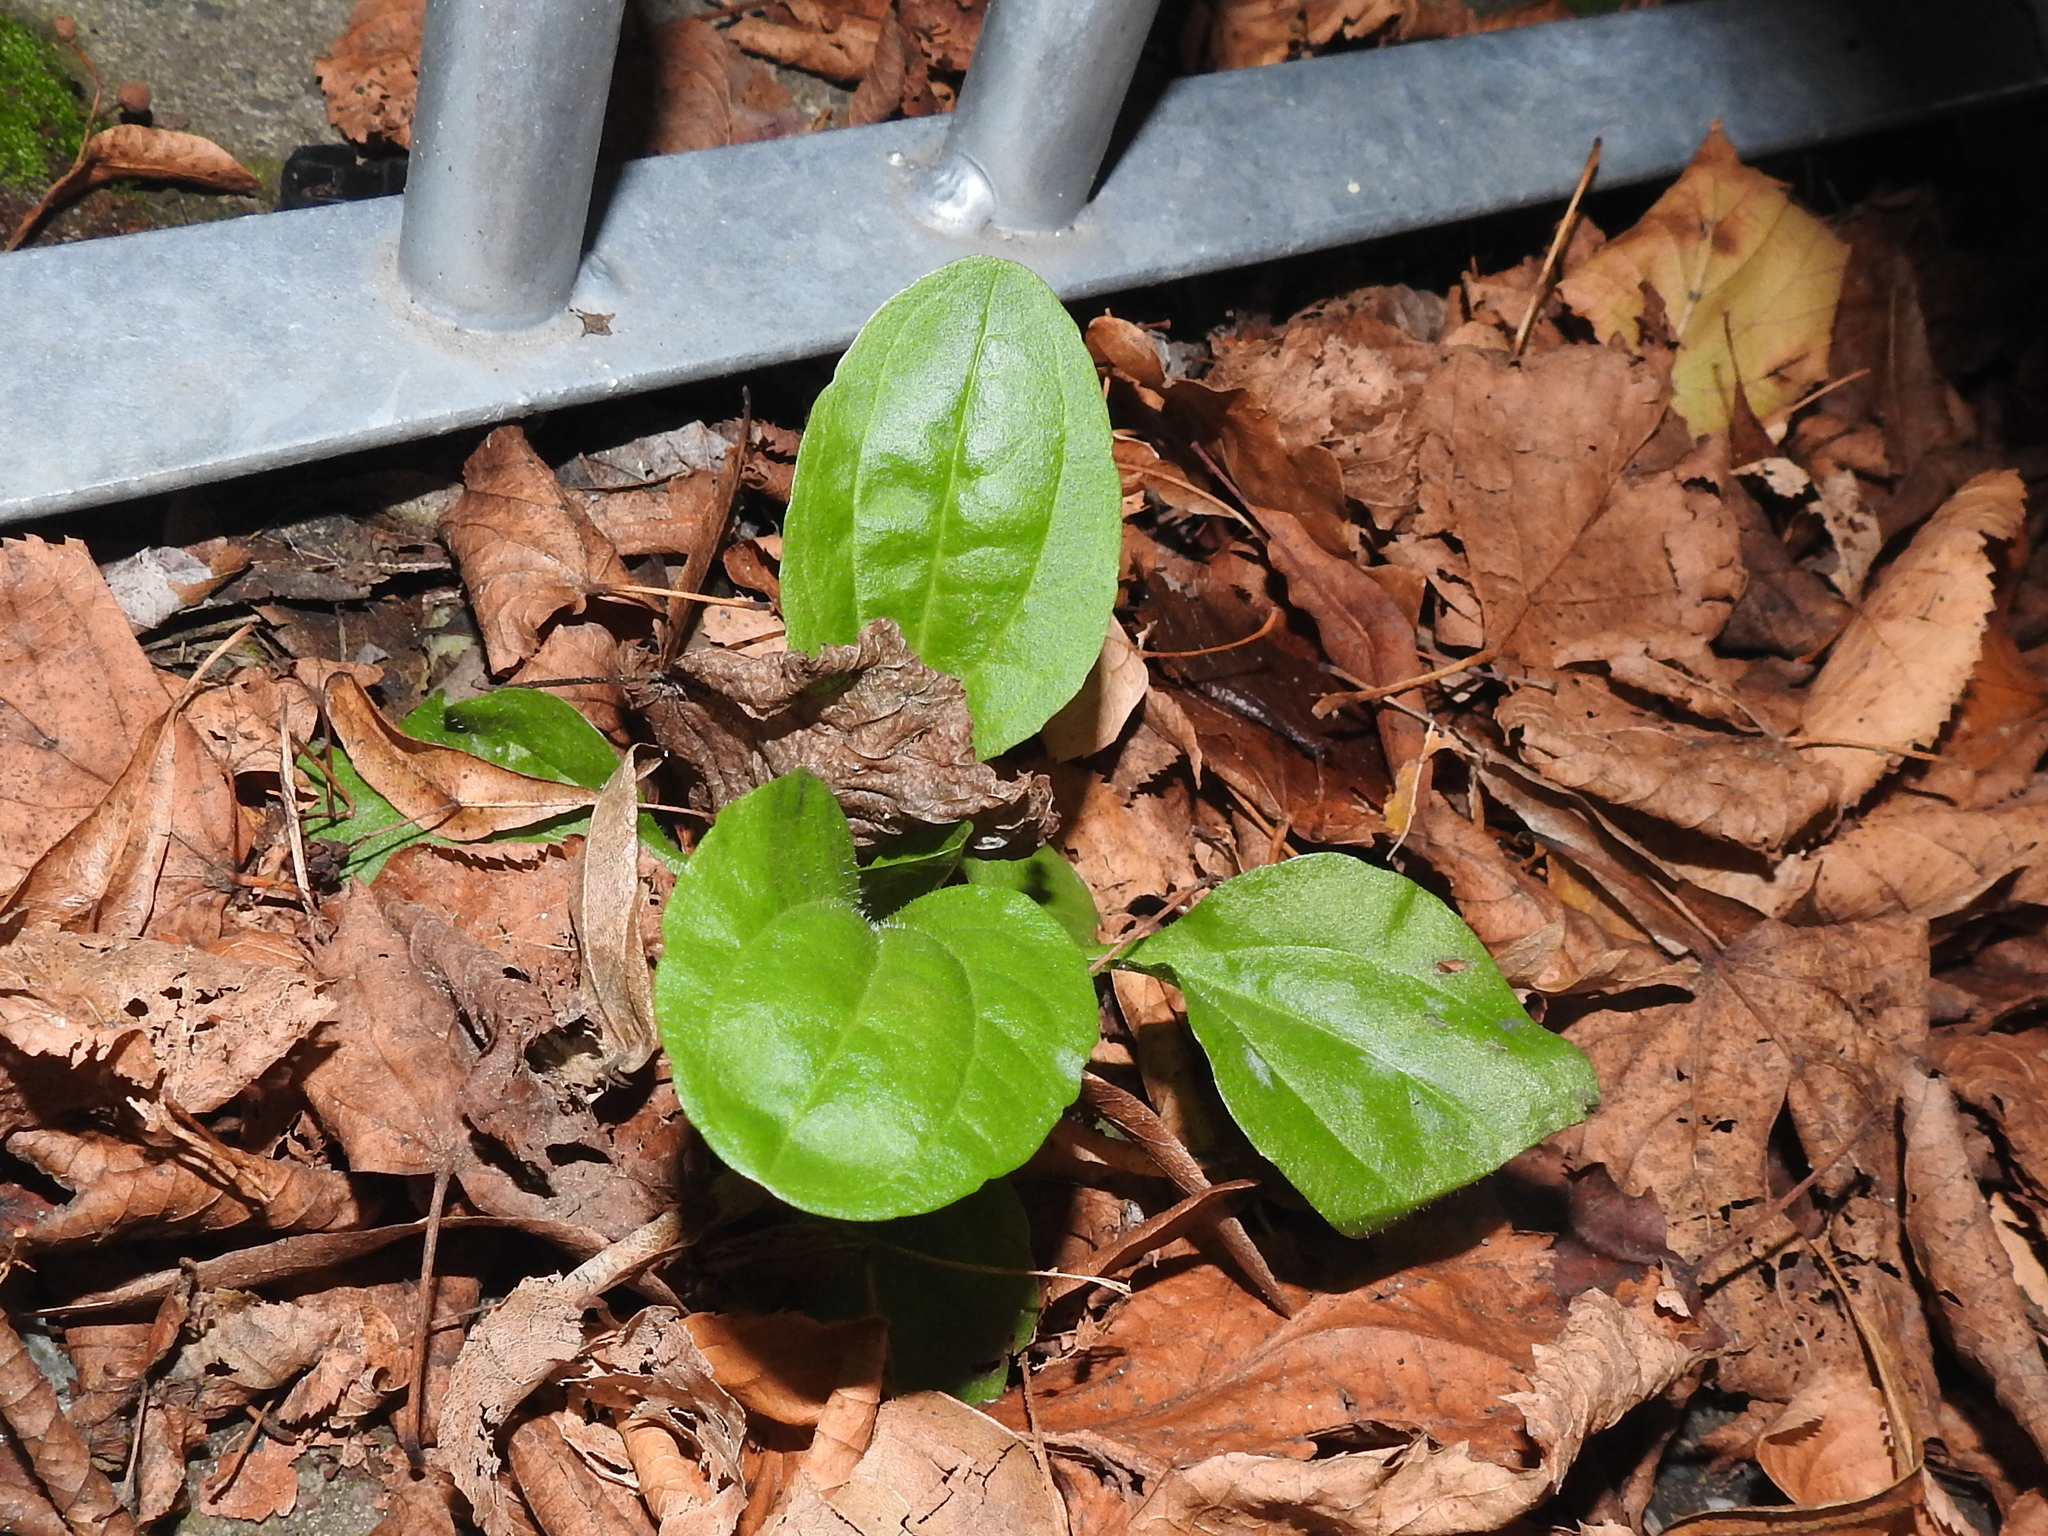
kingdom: Plantae
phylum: Tracheophyta
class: Magnoliopsida
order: Lamiales
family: Plantaginaceae
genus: Plantago
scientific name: Plantago major
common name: Common plantain
